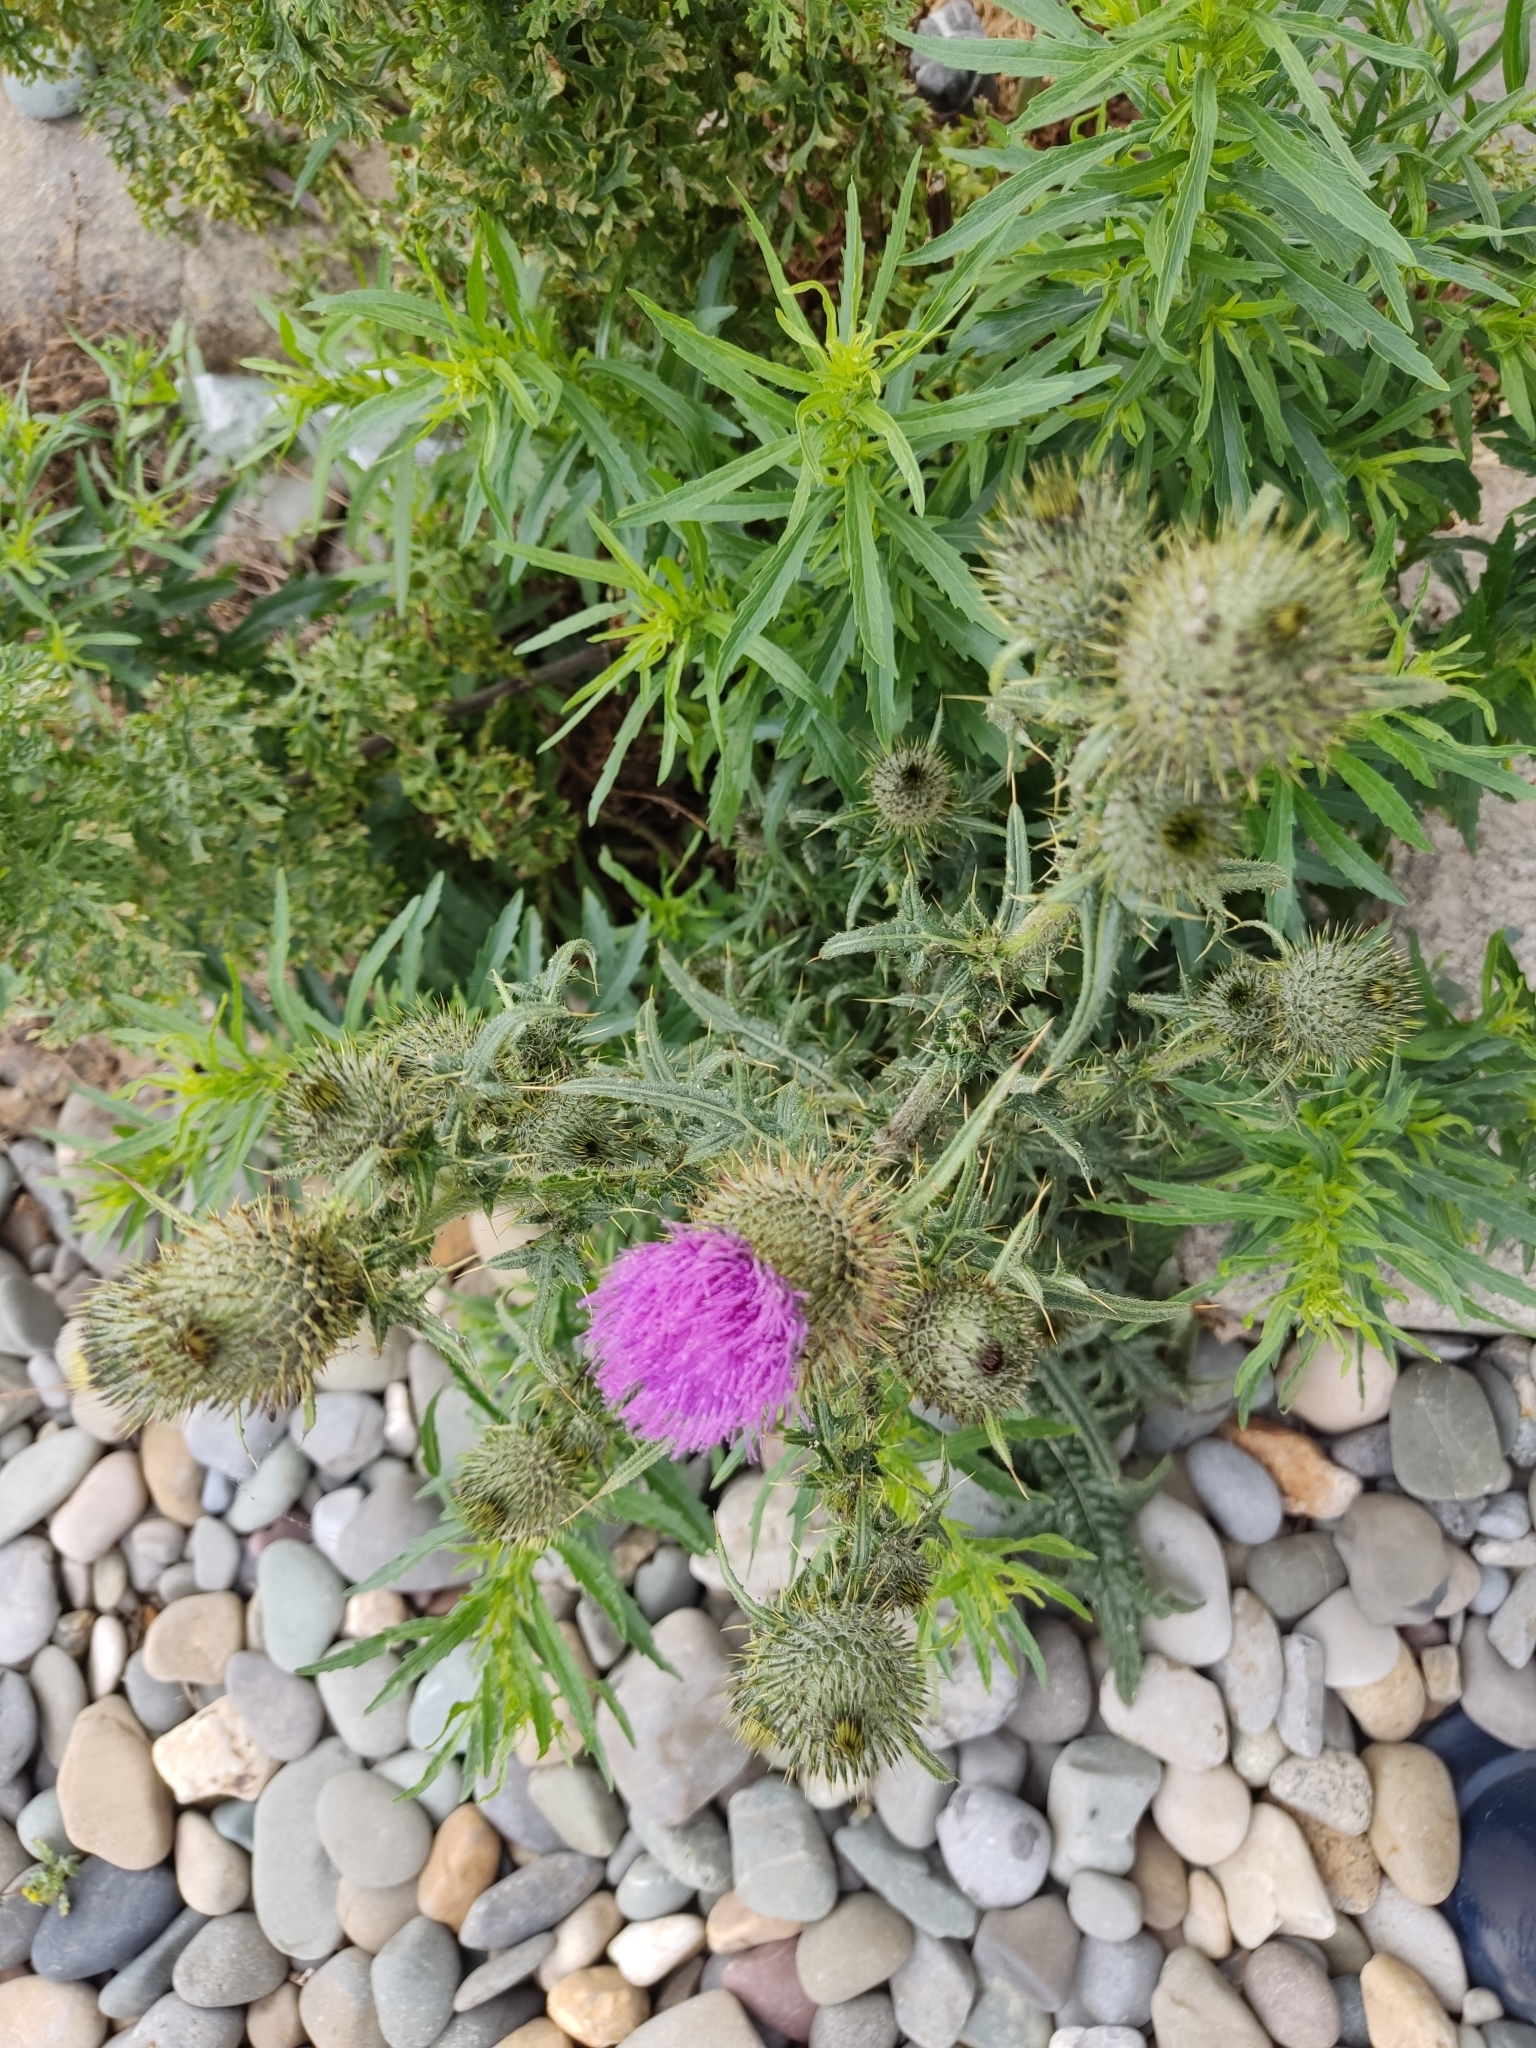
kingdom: Plantae
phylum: Tracheophyta
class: Magnoliopsida
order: Asterales
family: Asteraceae
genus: Cirsium
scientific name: Cirsium vulgare
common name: Bull thistle
